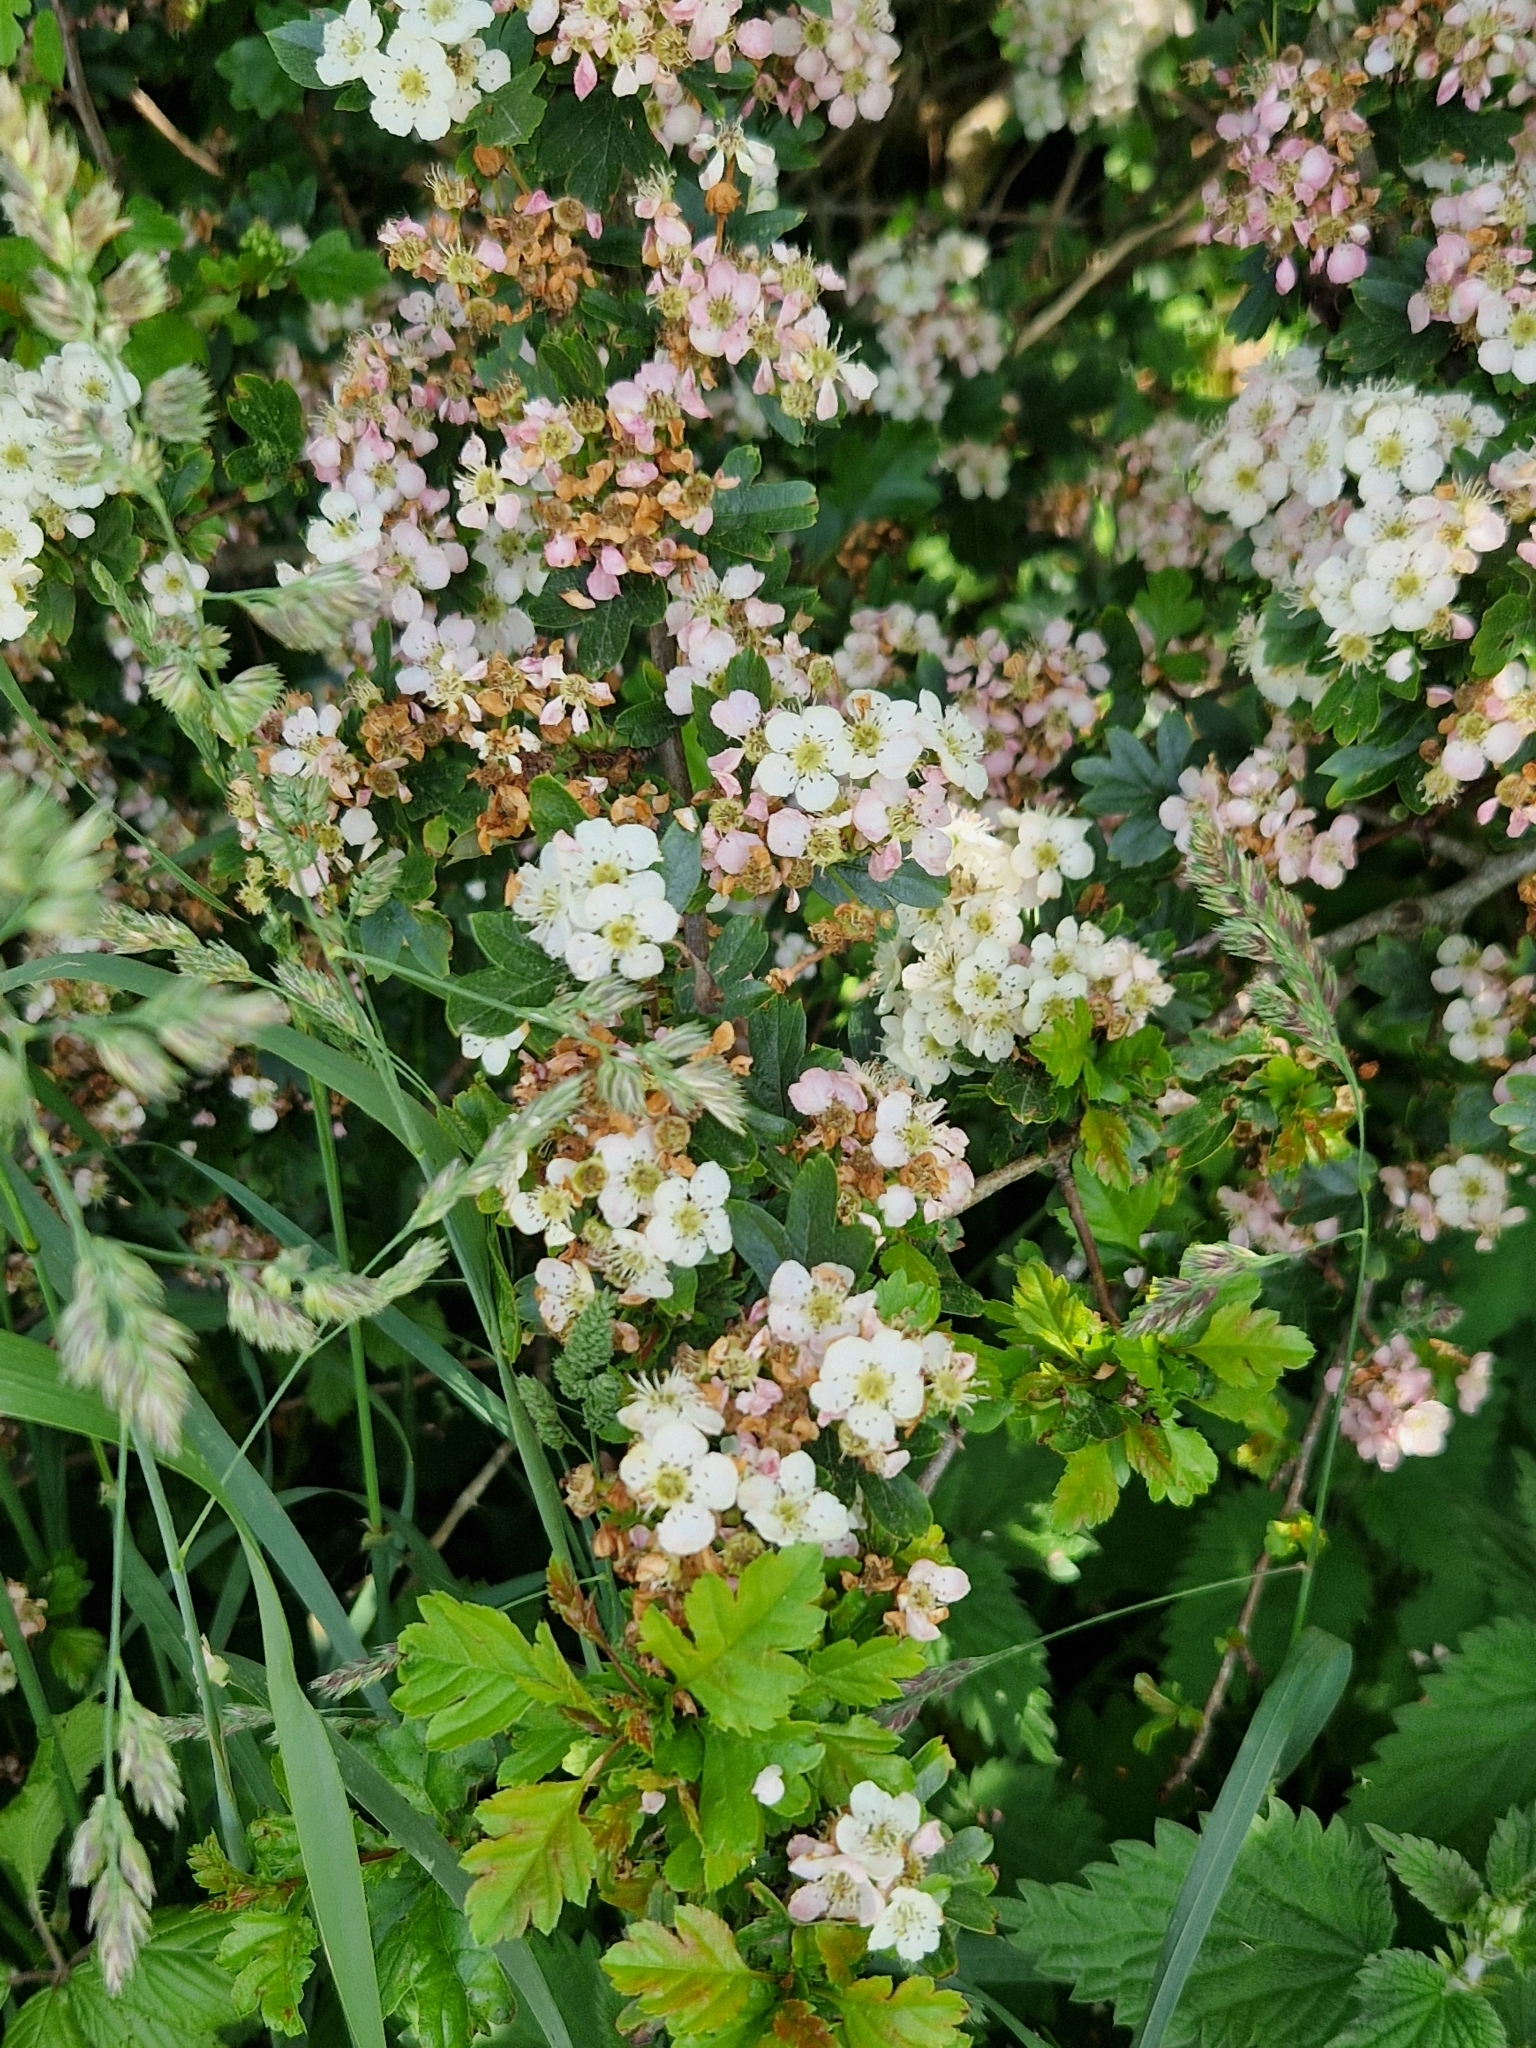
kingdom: Plantae
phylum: Tracheophyta
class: Magnoliopsida
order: Rosales
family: Rosaceae
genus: Crataegus
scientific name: Crataegus monogyna
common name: Hawthorn
